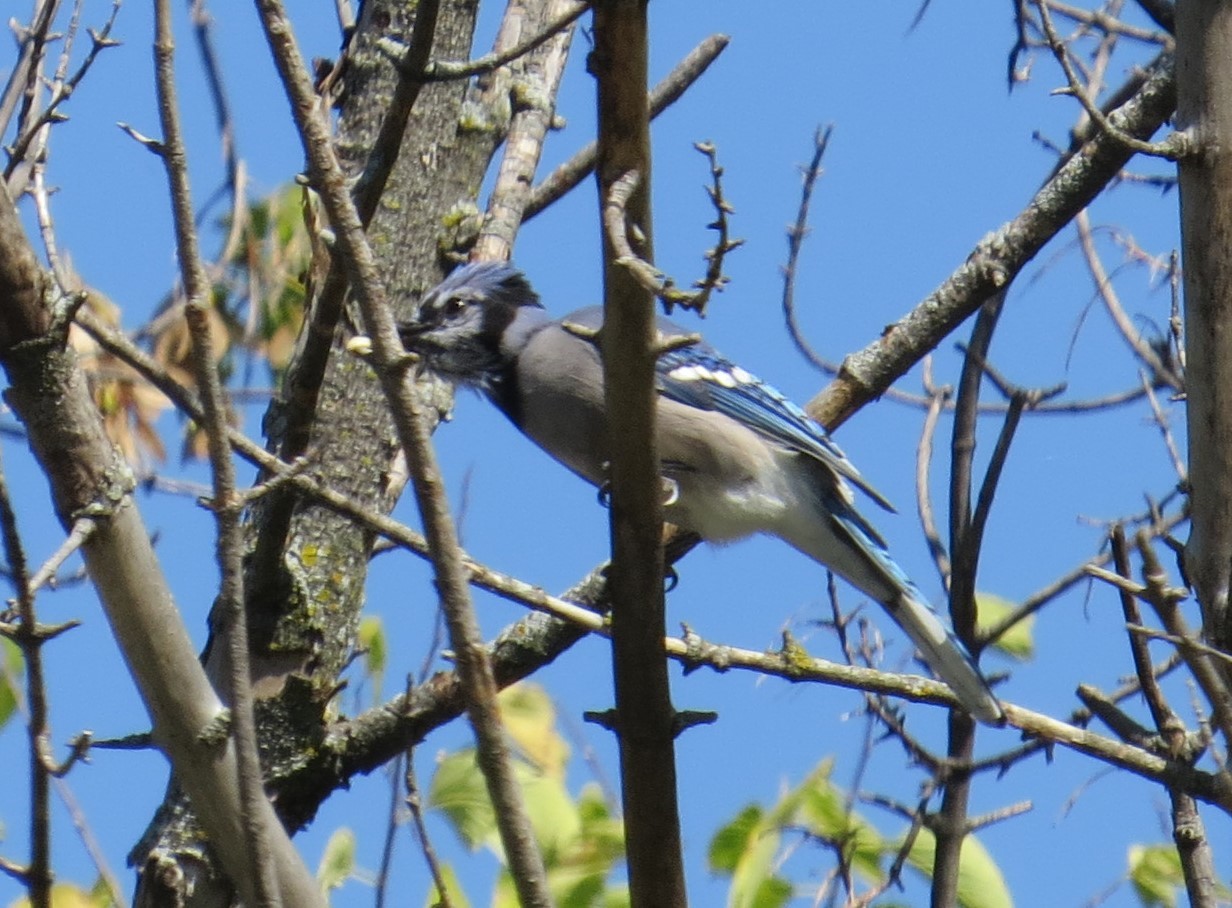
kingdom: Animalia
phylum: Chordata
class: Aves
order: Passeriformes
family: Corvidae
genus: Cyanocitta
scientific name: Cyanocitta cristata
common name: Blue jay
